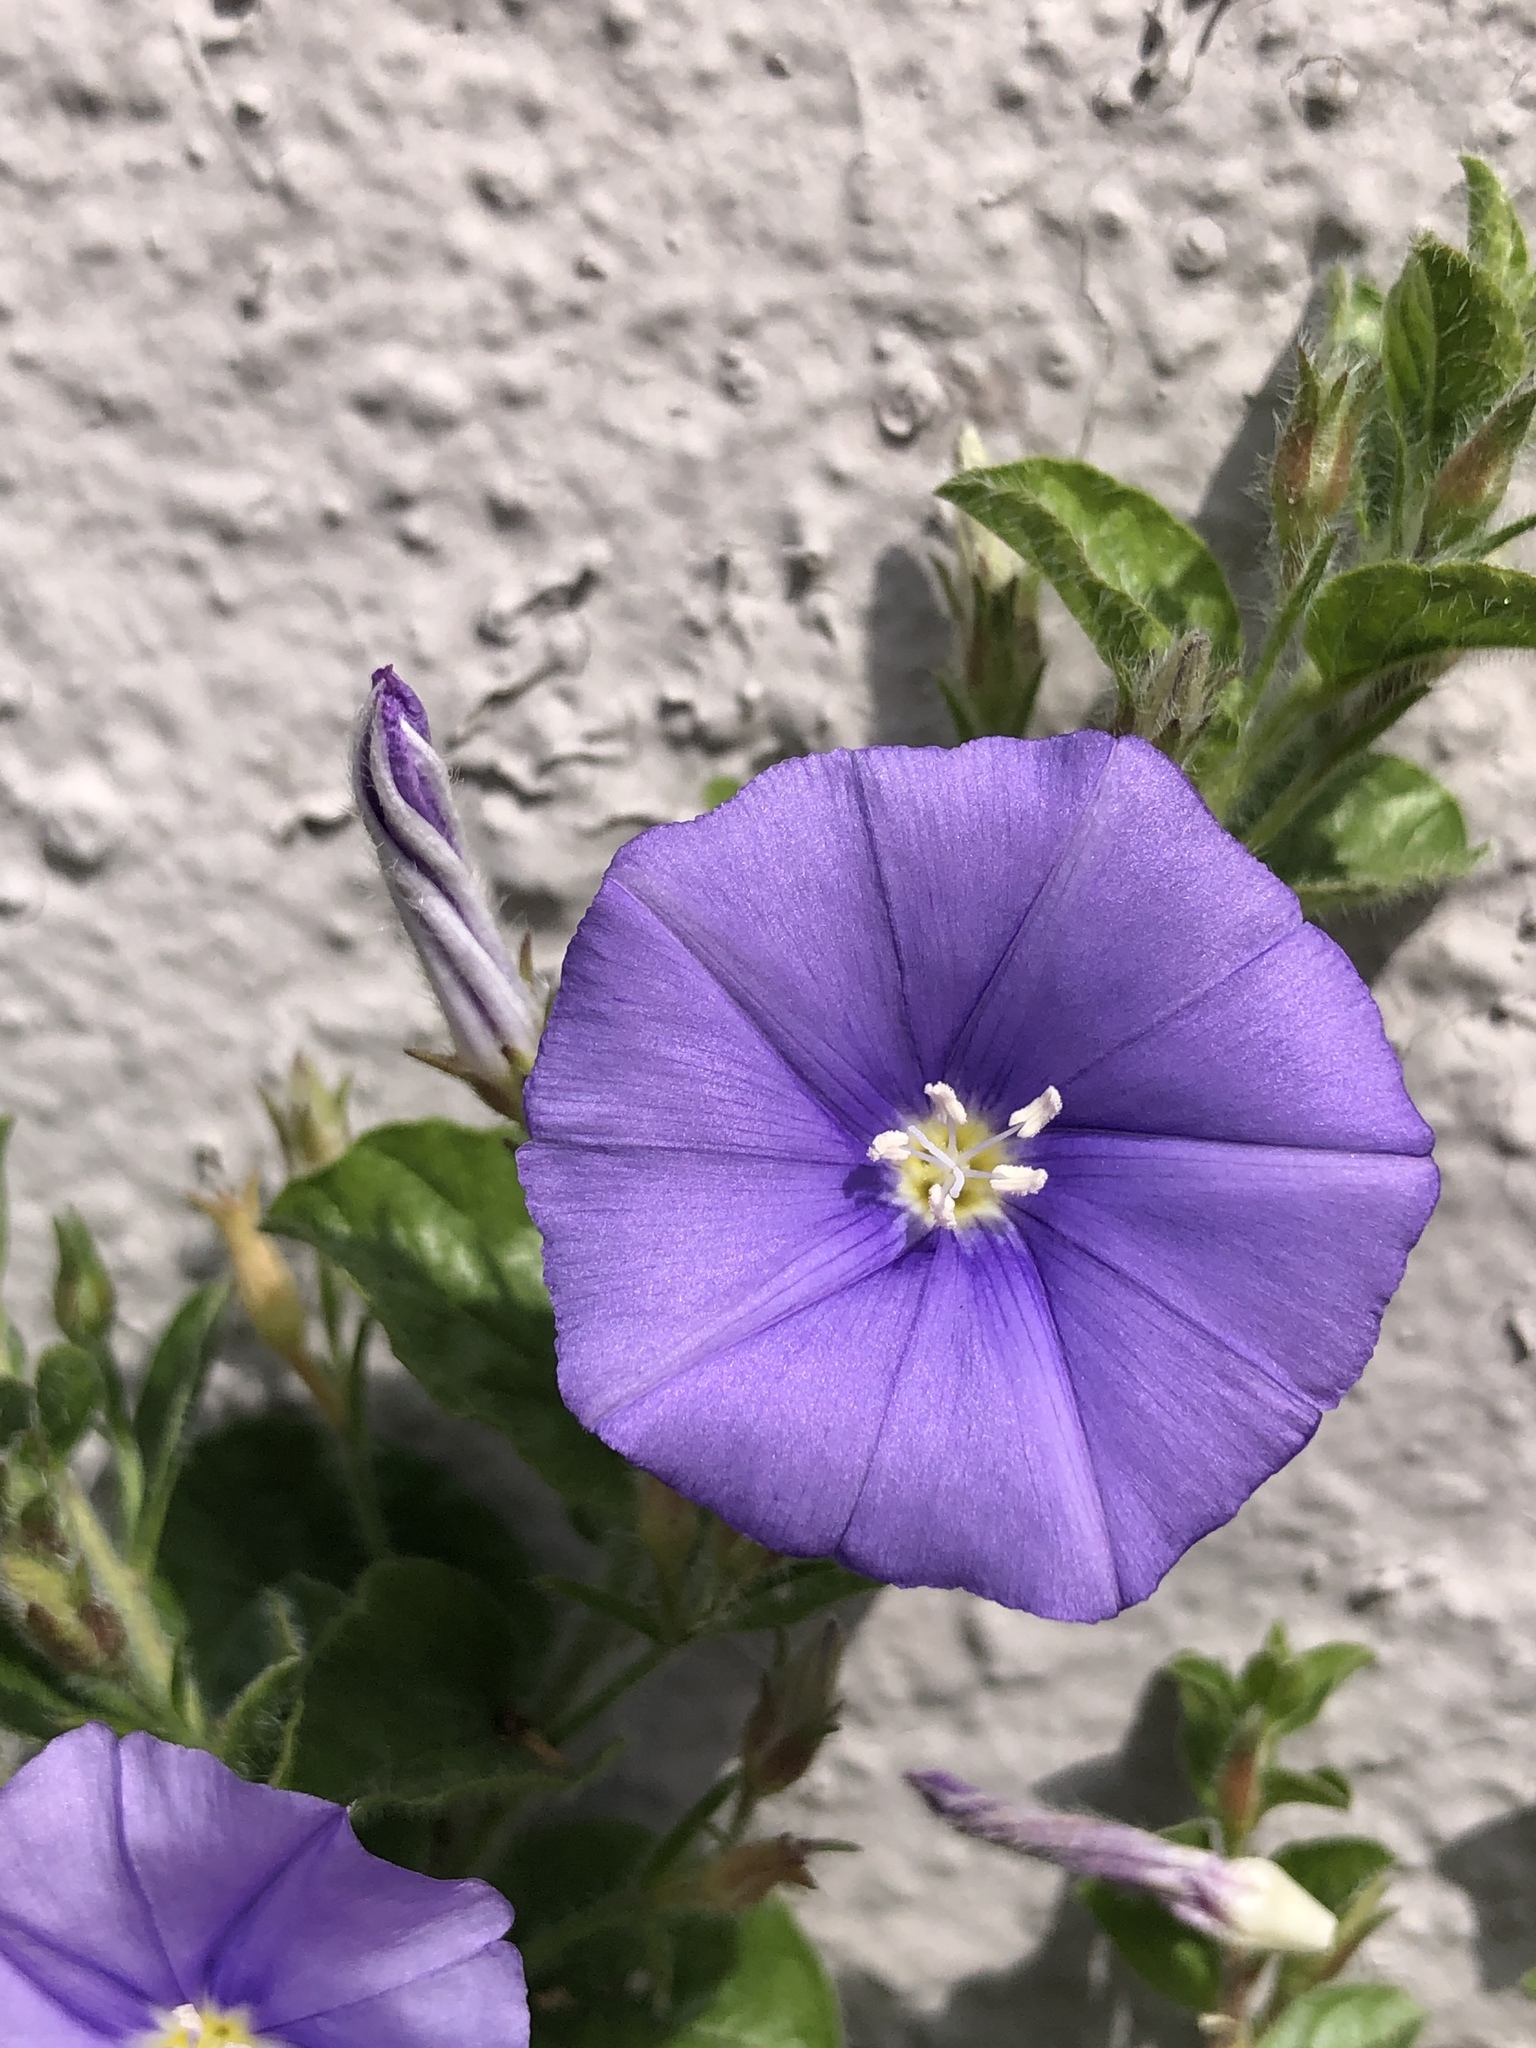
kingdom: Plantae
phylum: Tracheophyta
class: Magnoliopsida
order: Solanales
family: Convolvulaceae
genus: Convolvulus
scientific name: Convolvulus sabatius
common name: Ground blue-convolvulus
